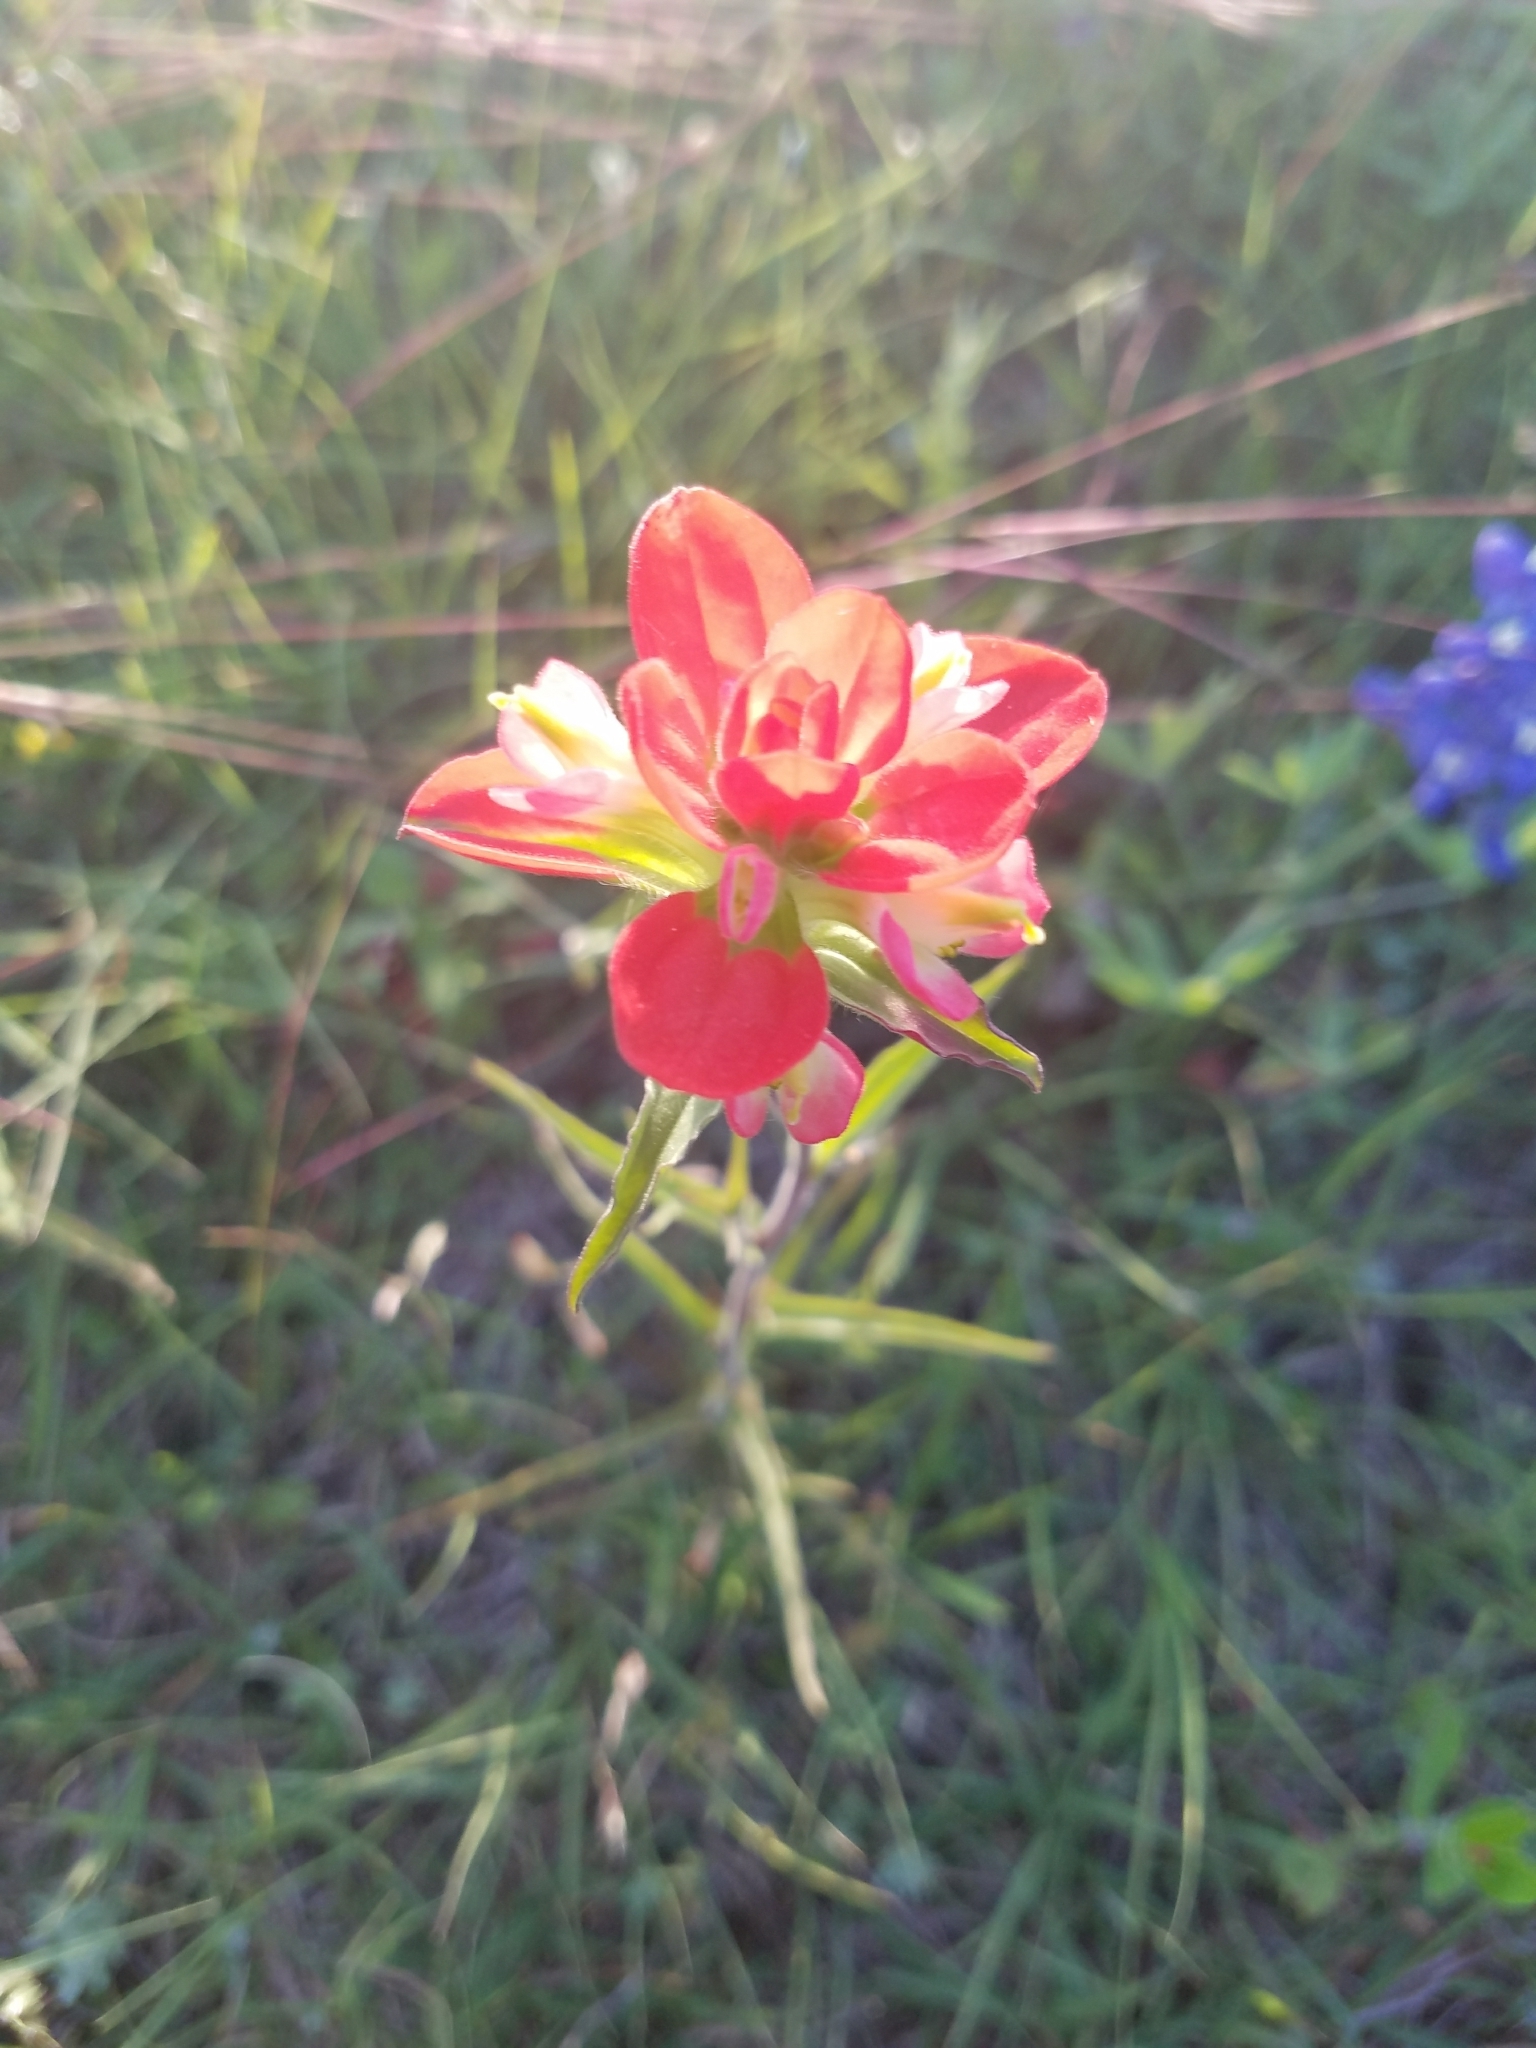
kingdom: Plantae
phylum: Tracheophyta
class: Magnoliopsida
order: Lamiales
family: Orobanchaceae
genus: Castilleja
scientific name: Castilleja indivisa
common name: Texas paintbrush
